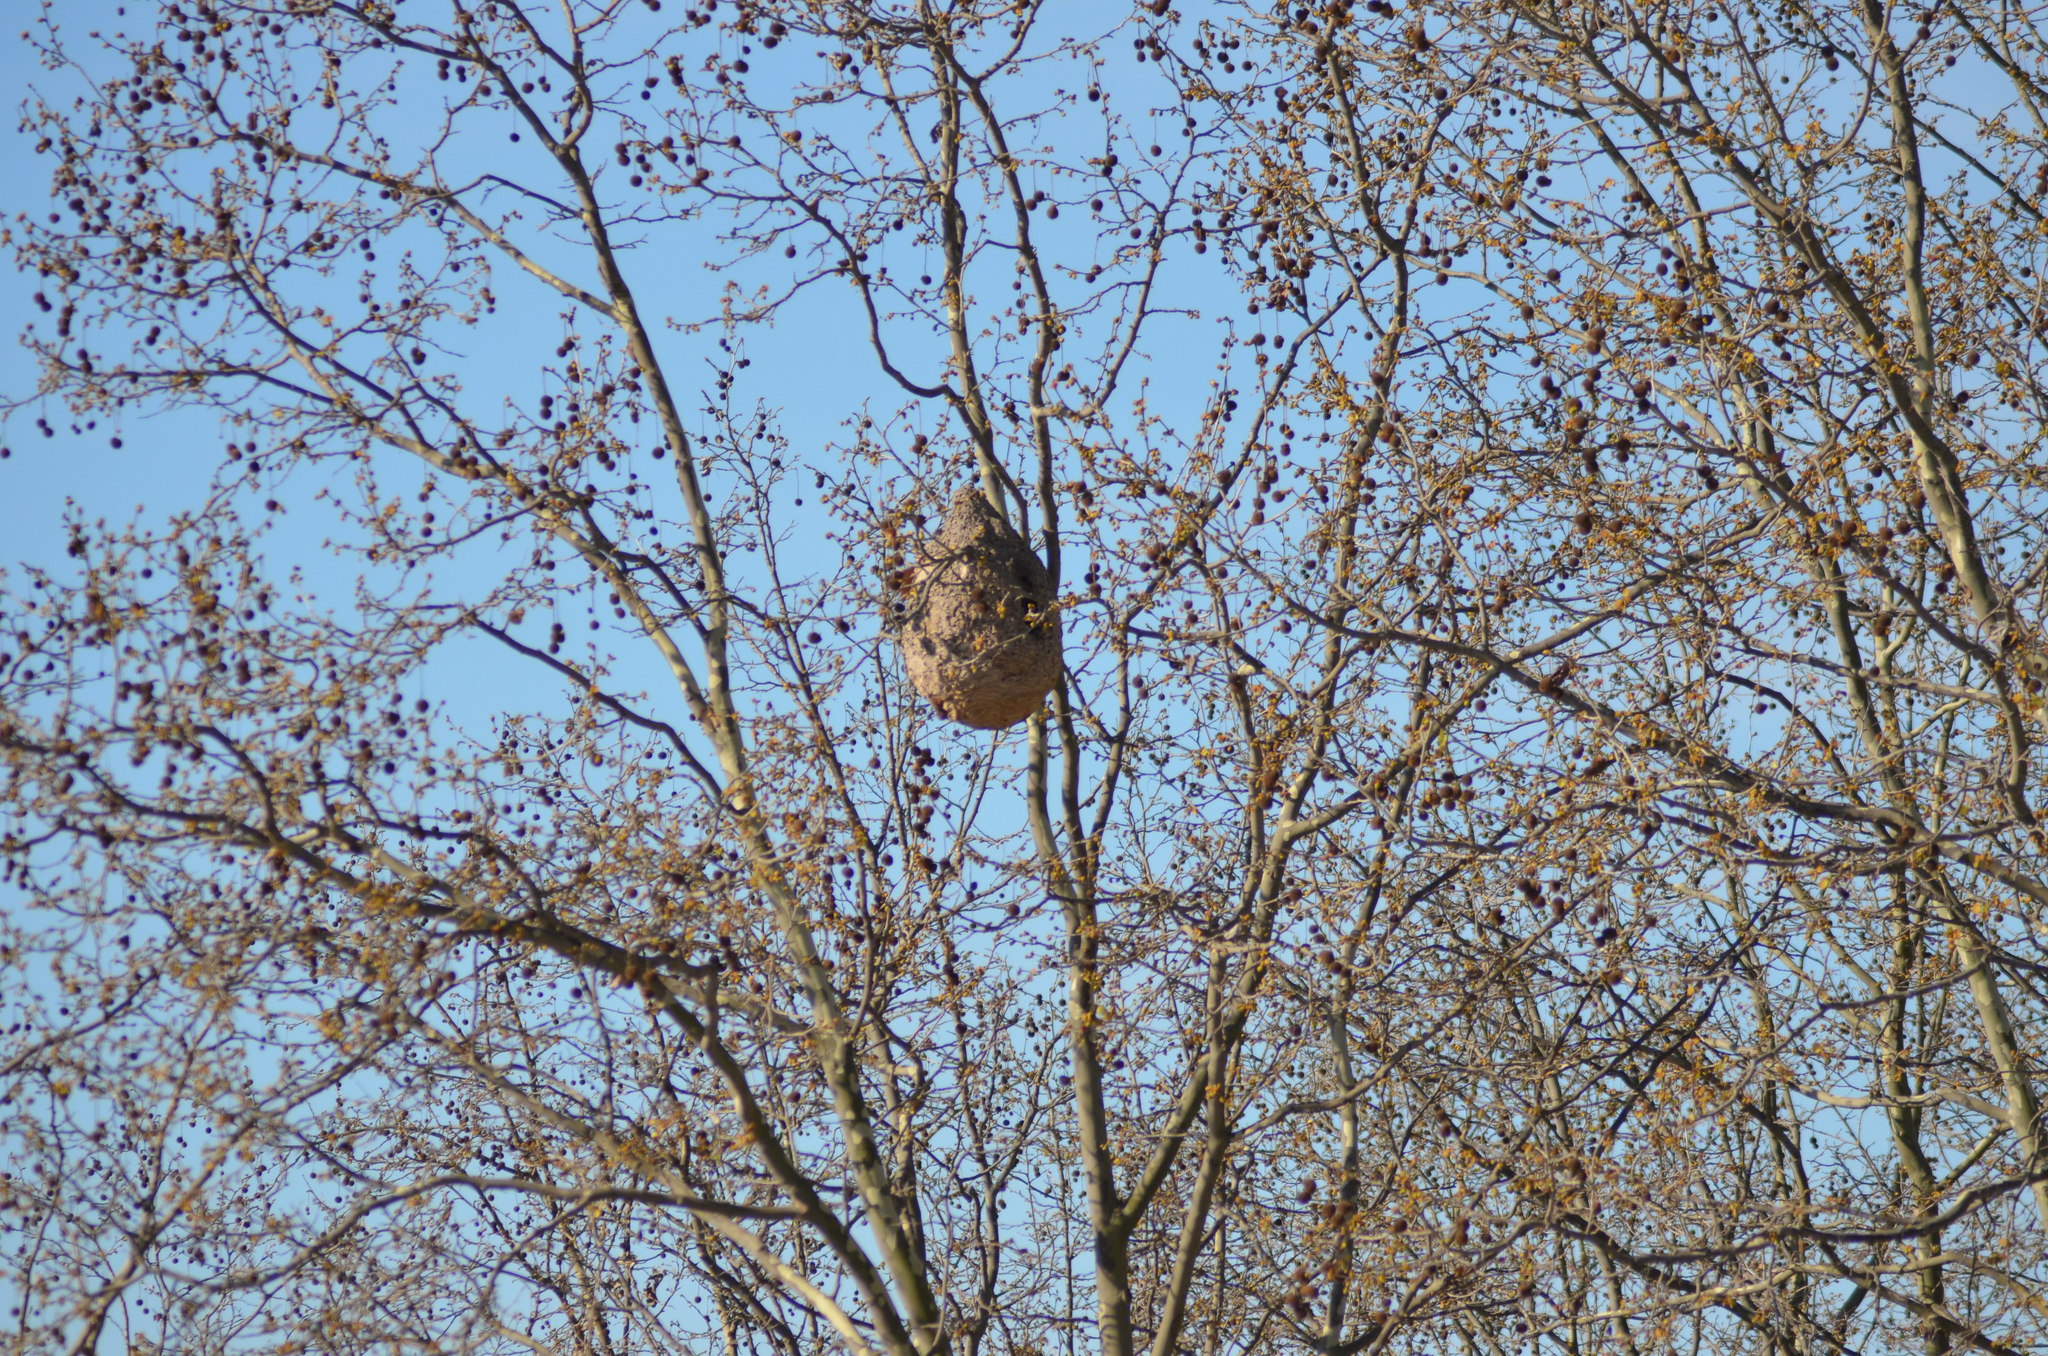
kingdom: Animalia
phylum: Arthropoda
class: Insecta
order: Hymenoptera
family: Vespidae
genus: Vespa
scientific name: Vespa velutina
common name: Asian hornet
